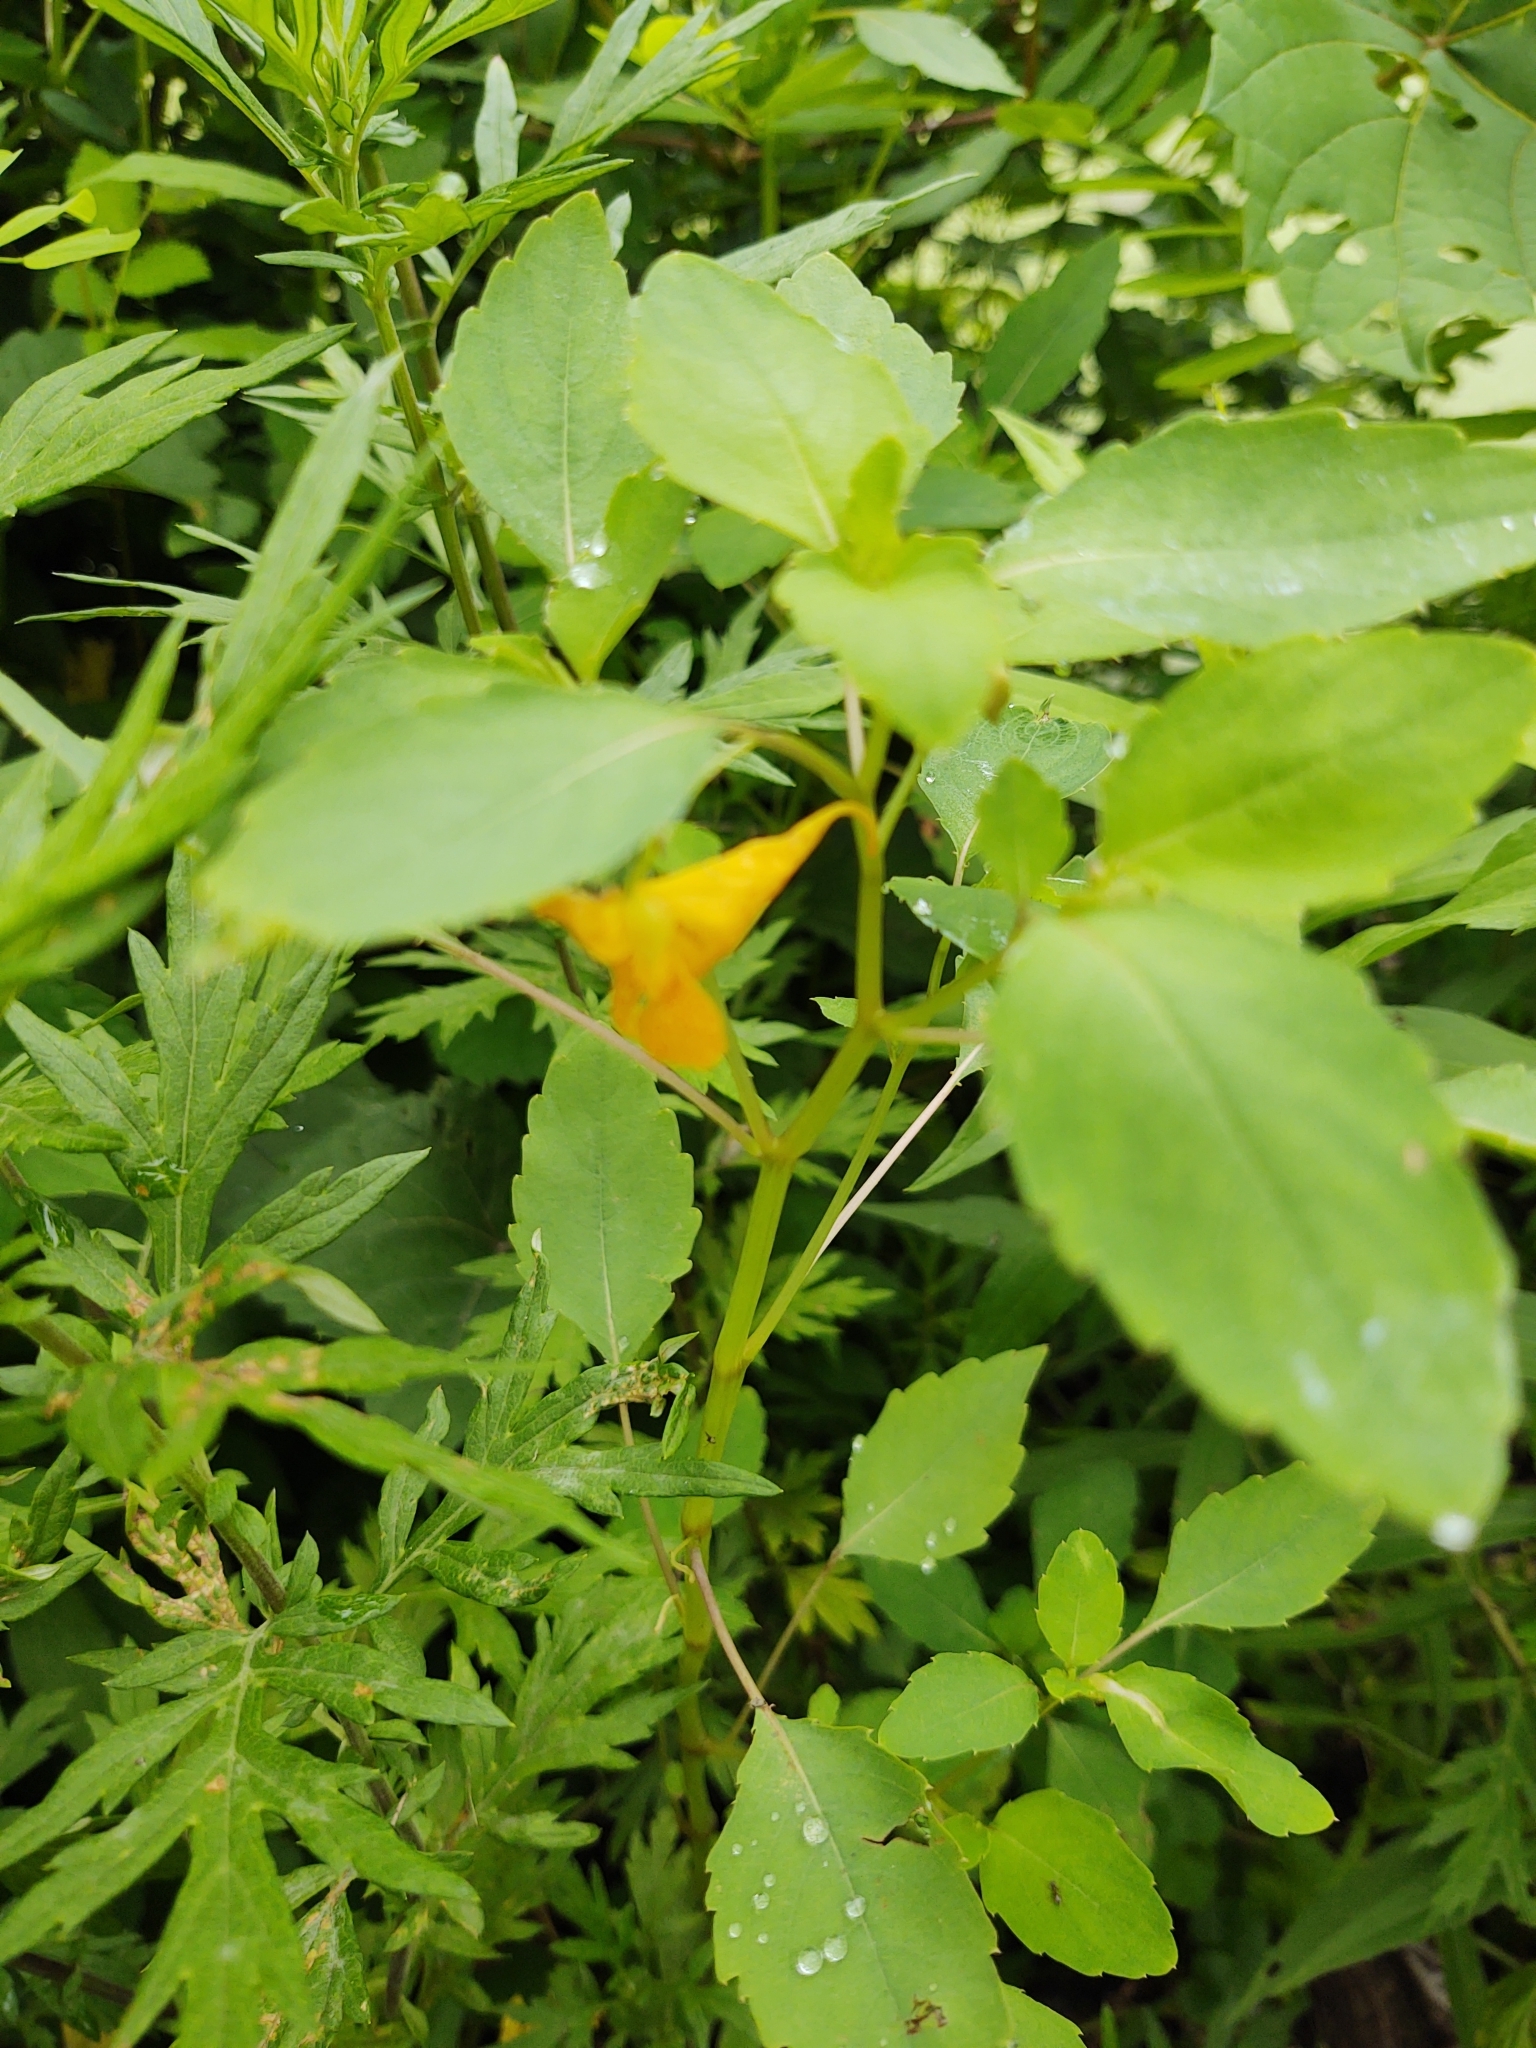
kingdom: Plantae
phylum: Tracheophyta
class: Magnoliopsida
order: Ericales
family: Balsaminaceae
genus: Impatiens
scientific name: Impatiens capensis
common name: Orange balsam
